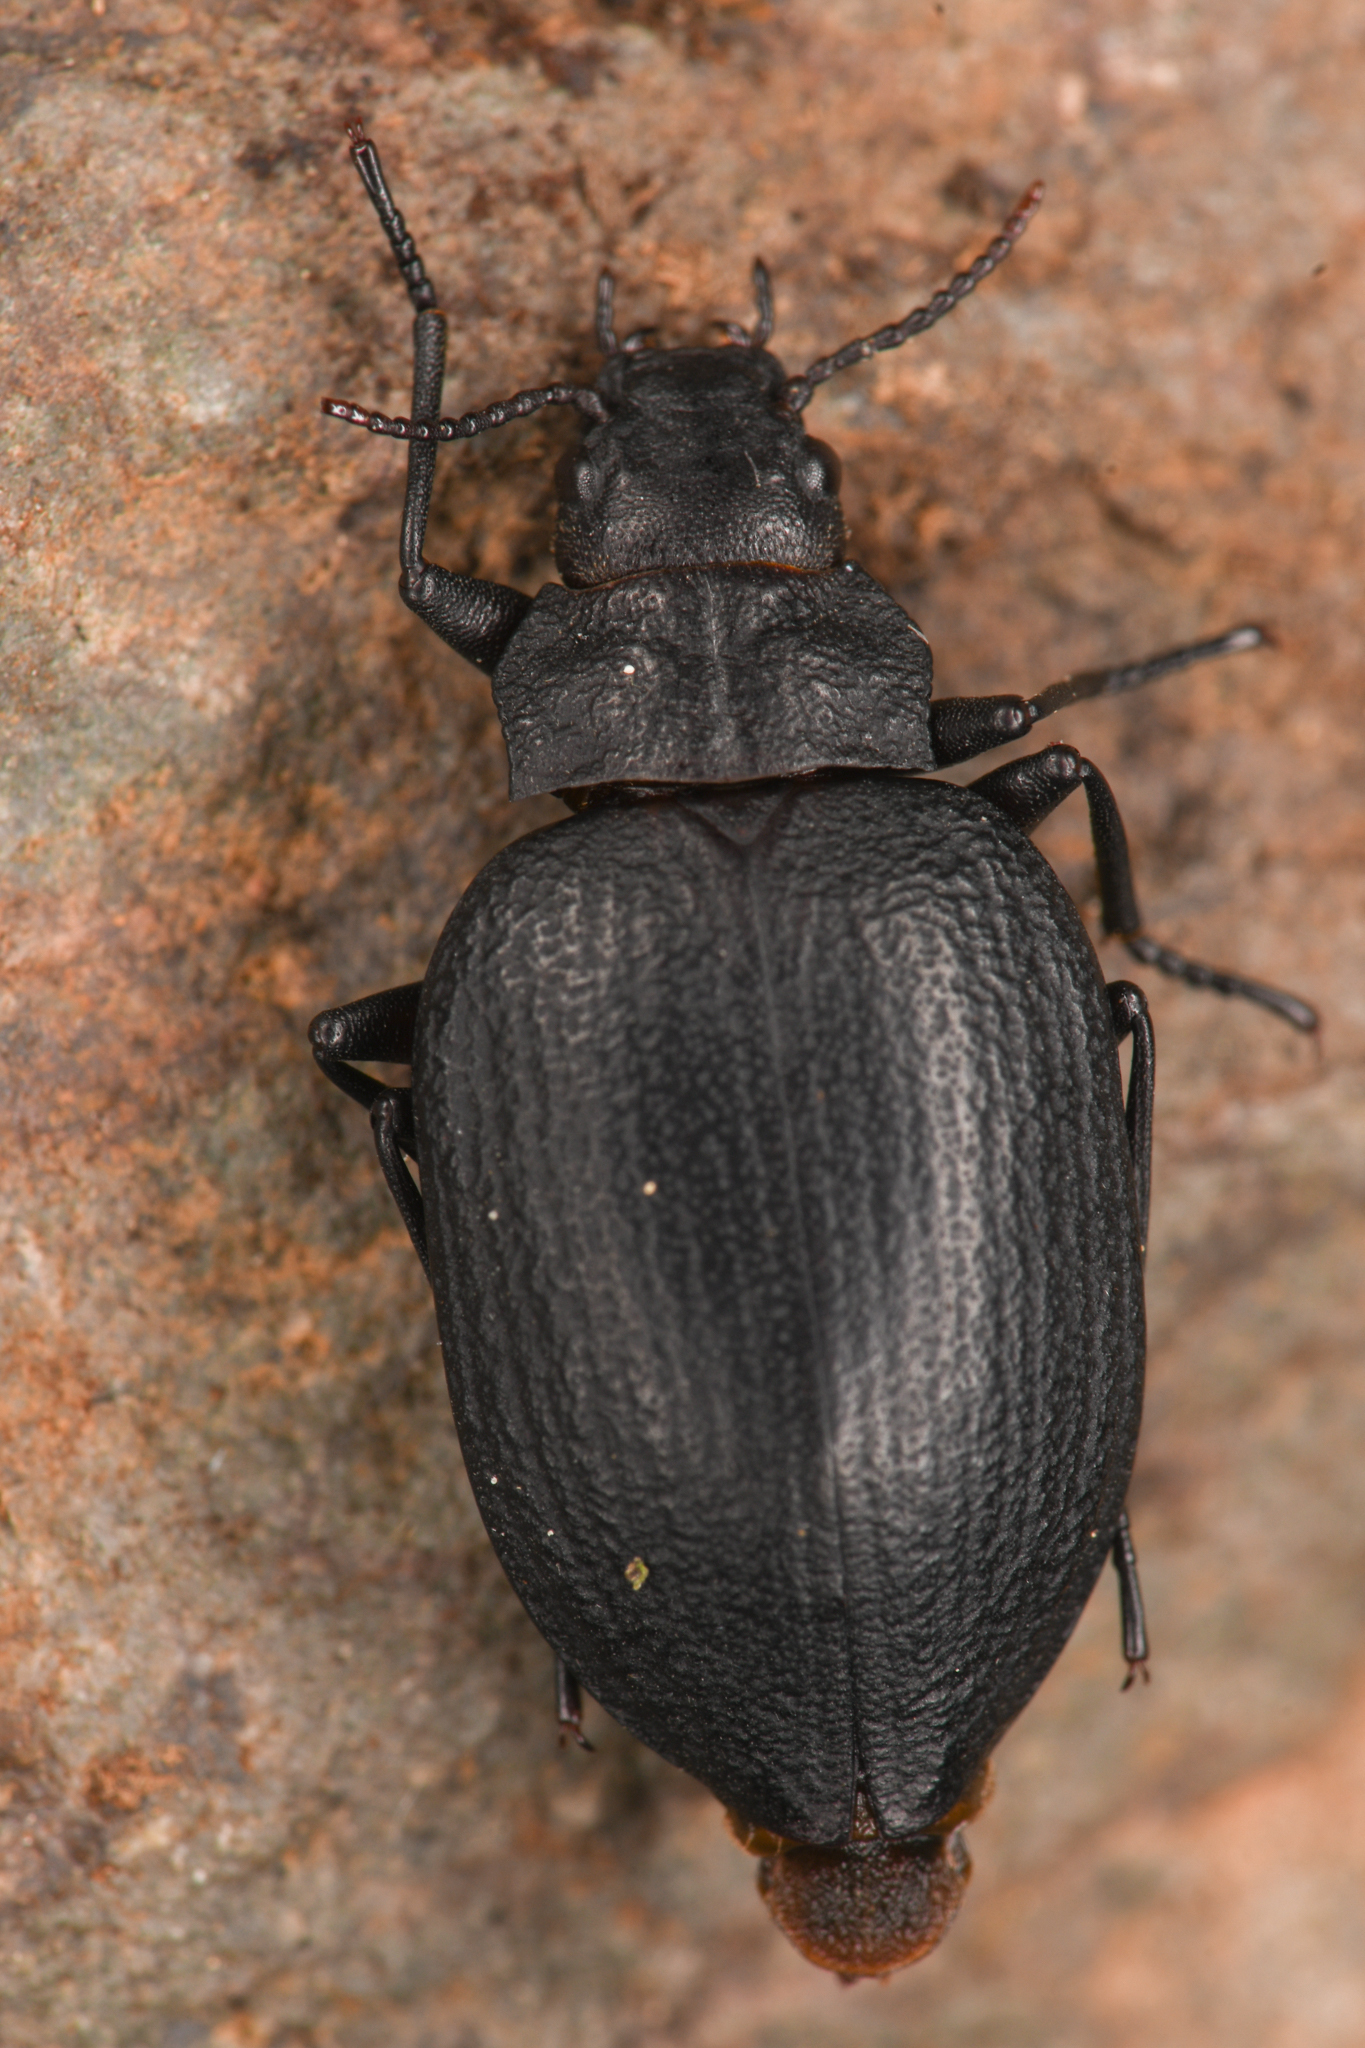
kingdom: Animalia
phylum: Arthropoda
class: Insecta
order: Coleoptera
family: Amphizoidae
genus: Amphizoa
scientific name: Amphizoa insolens
